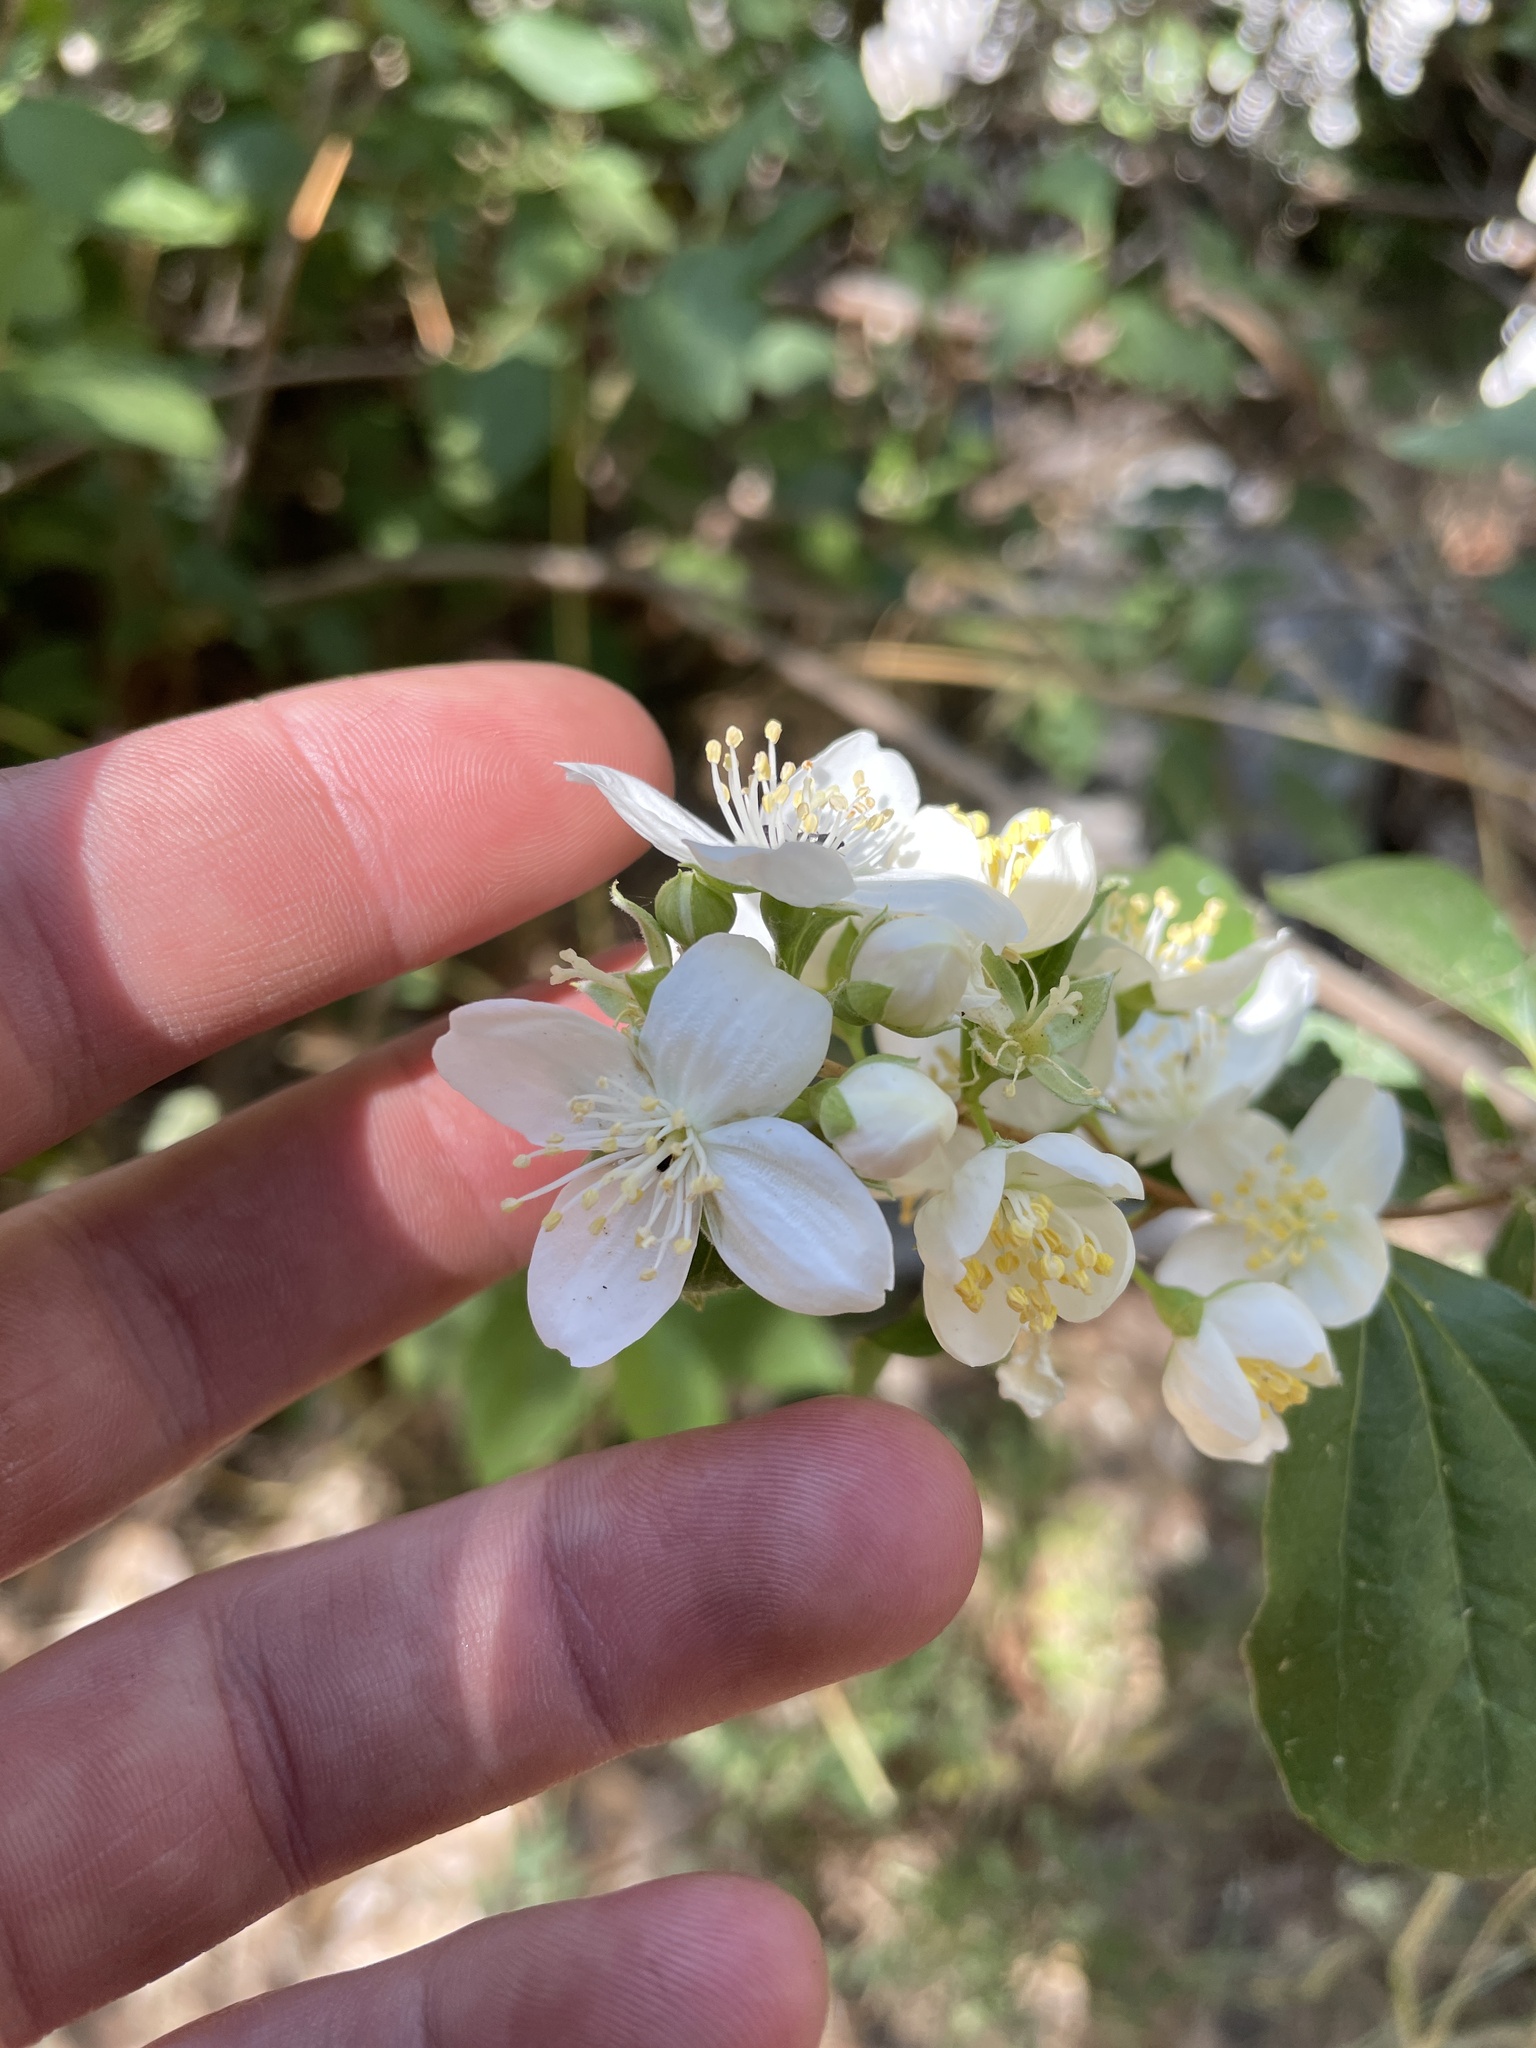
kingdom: Plantae
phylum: Tracheophyta
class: Magnoliopsida
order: Cornales
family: Hydrangeaceae
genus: Philadelphus
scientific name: Philadelphus lewisii
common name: Lewis's mock orange
